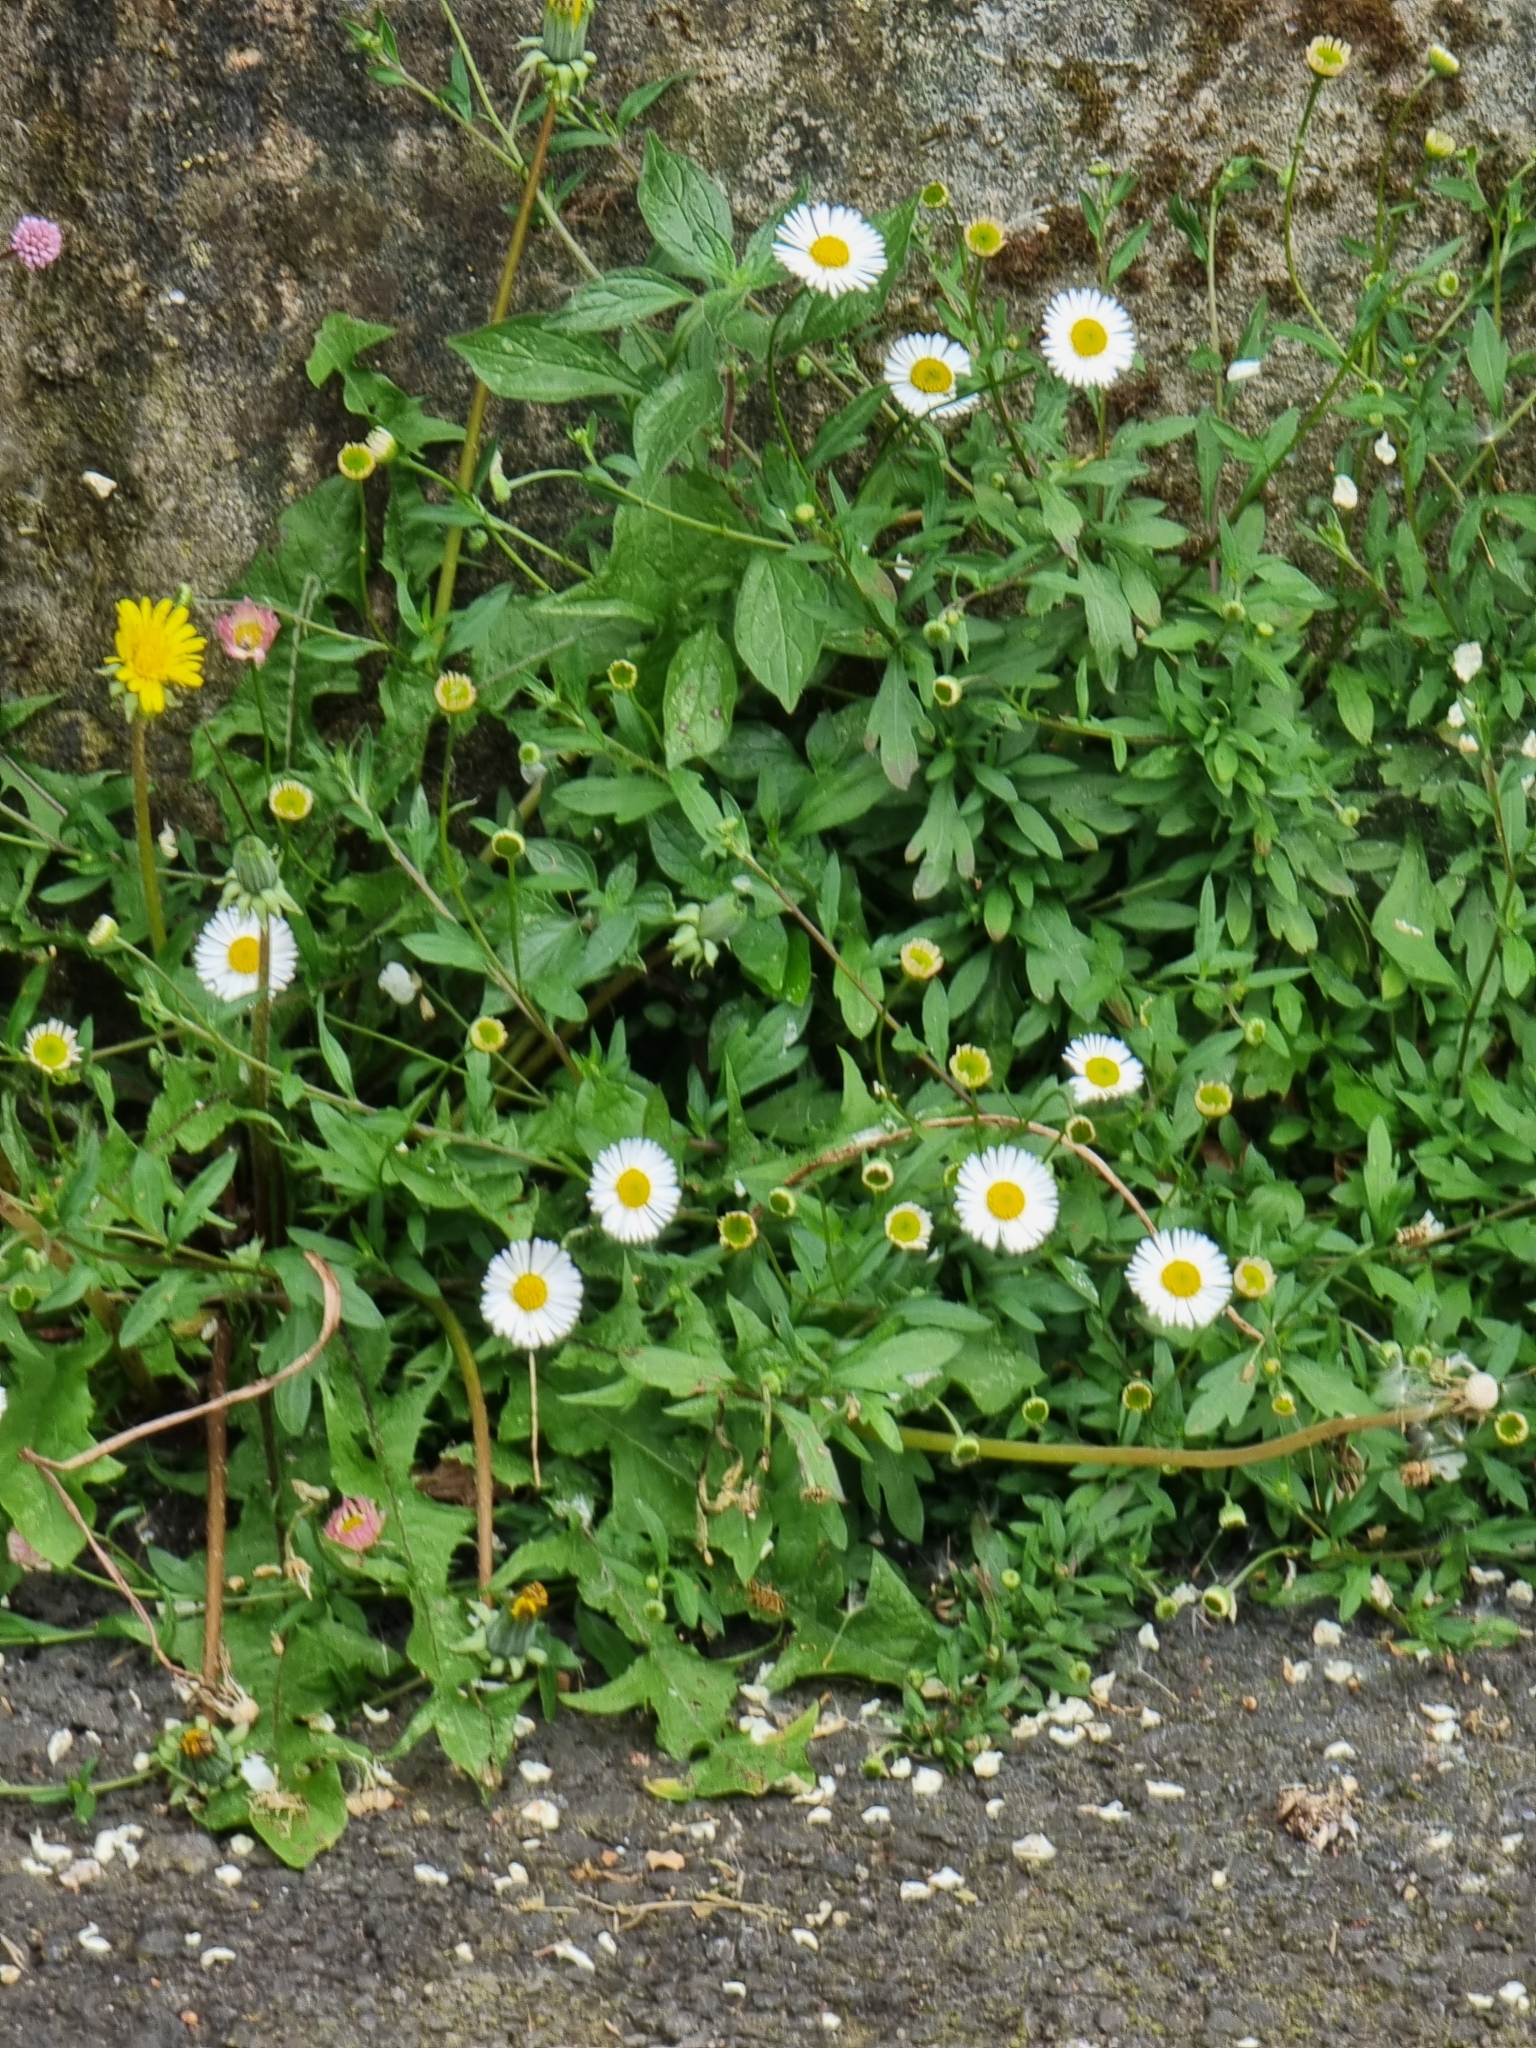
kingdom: Plantae
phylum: Tracheophyta
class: Magnoliopsida
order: Asterales
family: Asteraceae
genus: Erigeron
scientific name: Erigeron karvinskianus
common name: Mexican fleabane
